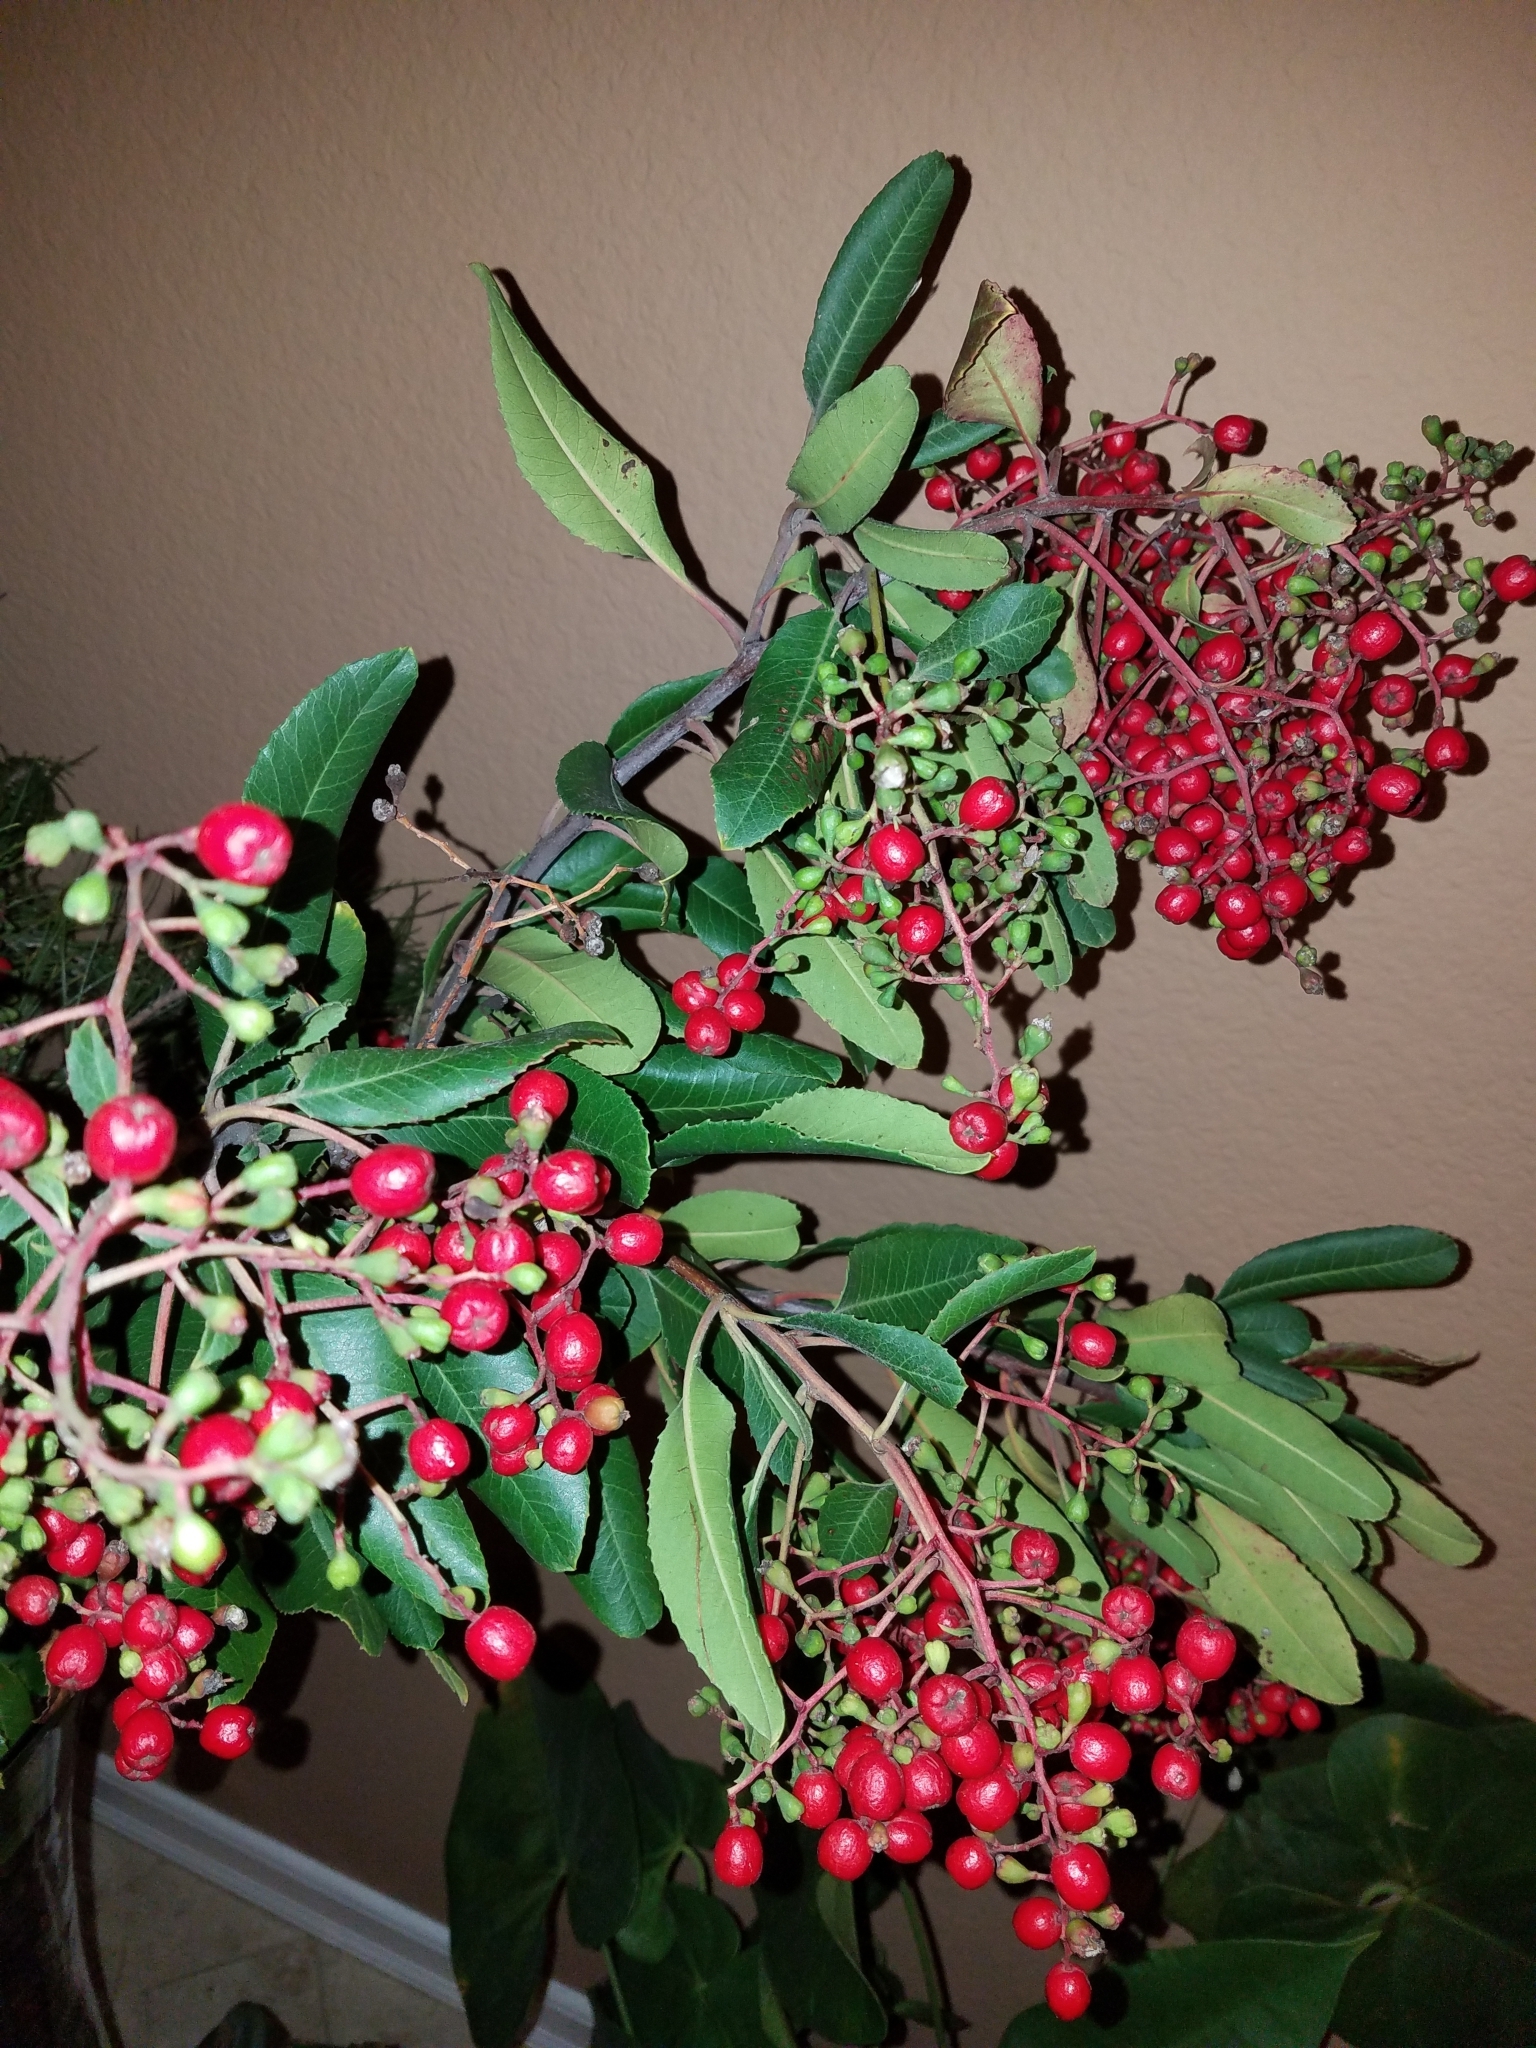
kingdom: Plantae
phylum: Tracheophyta
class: Magnoliopsida
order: Rosales
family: Rosaceae
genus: Heteromeles
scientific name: Heteromeles arbutifolia
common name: California-holly
